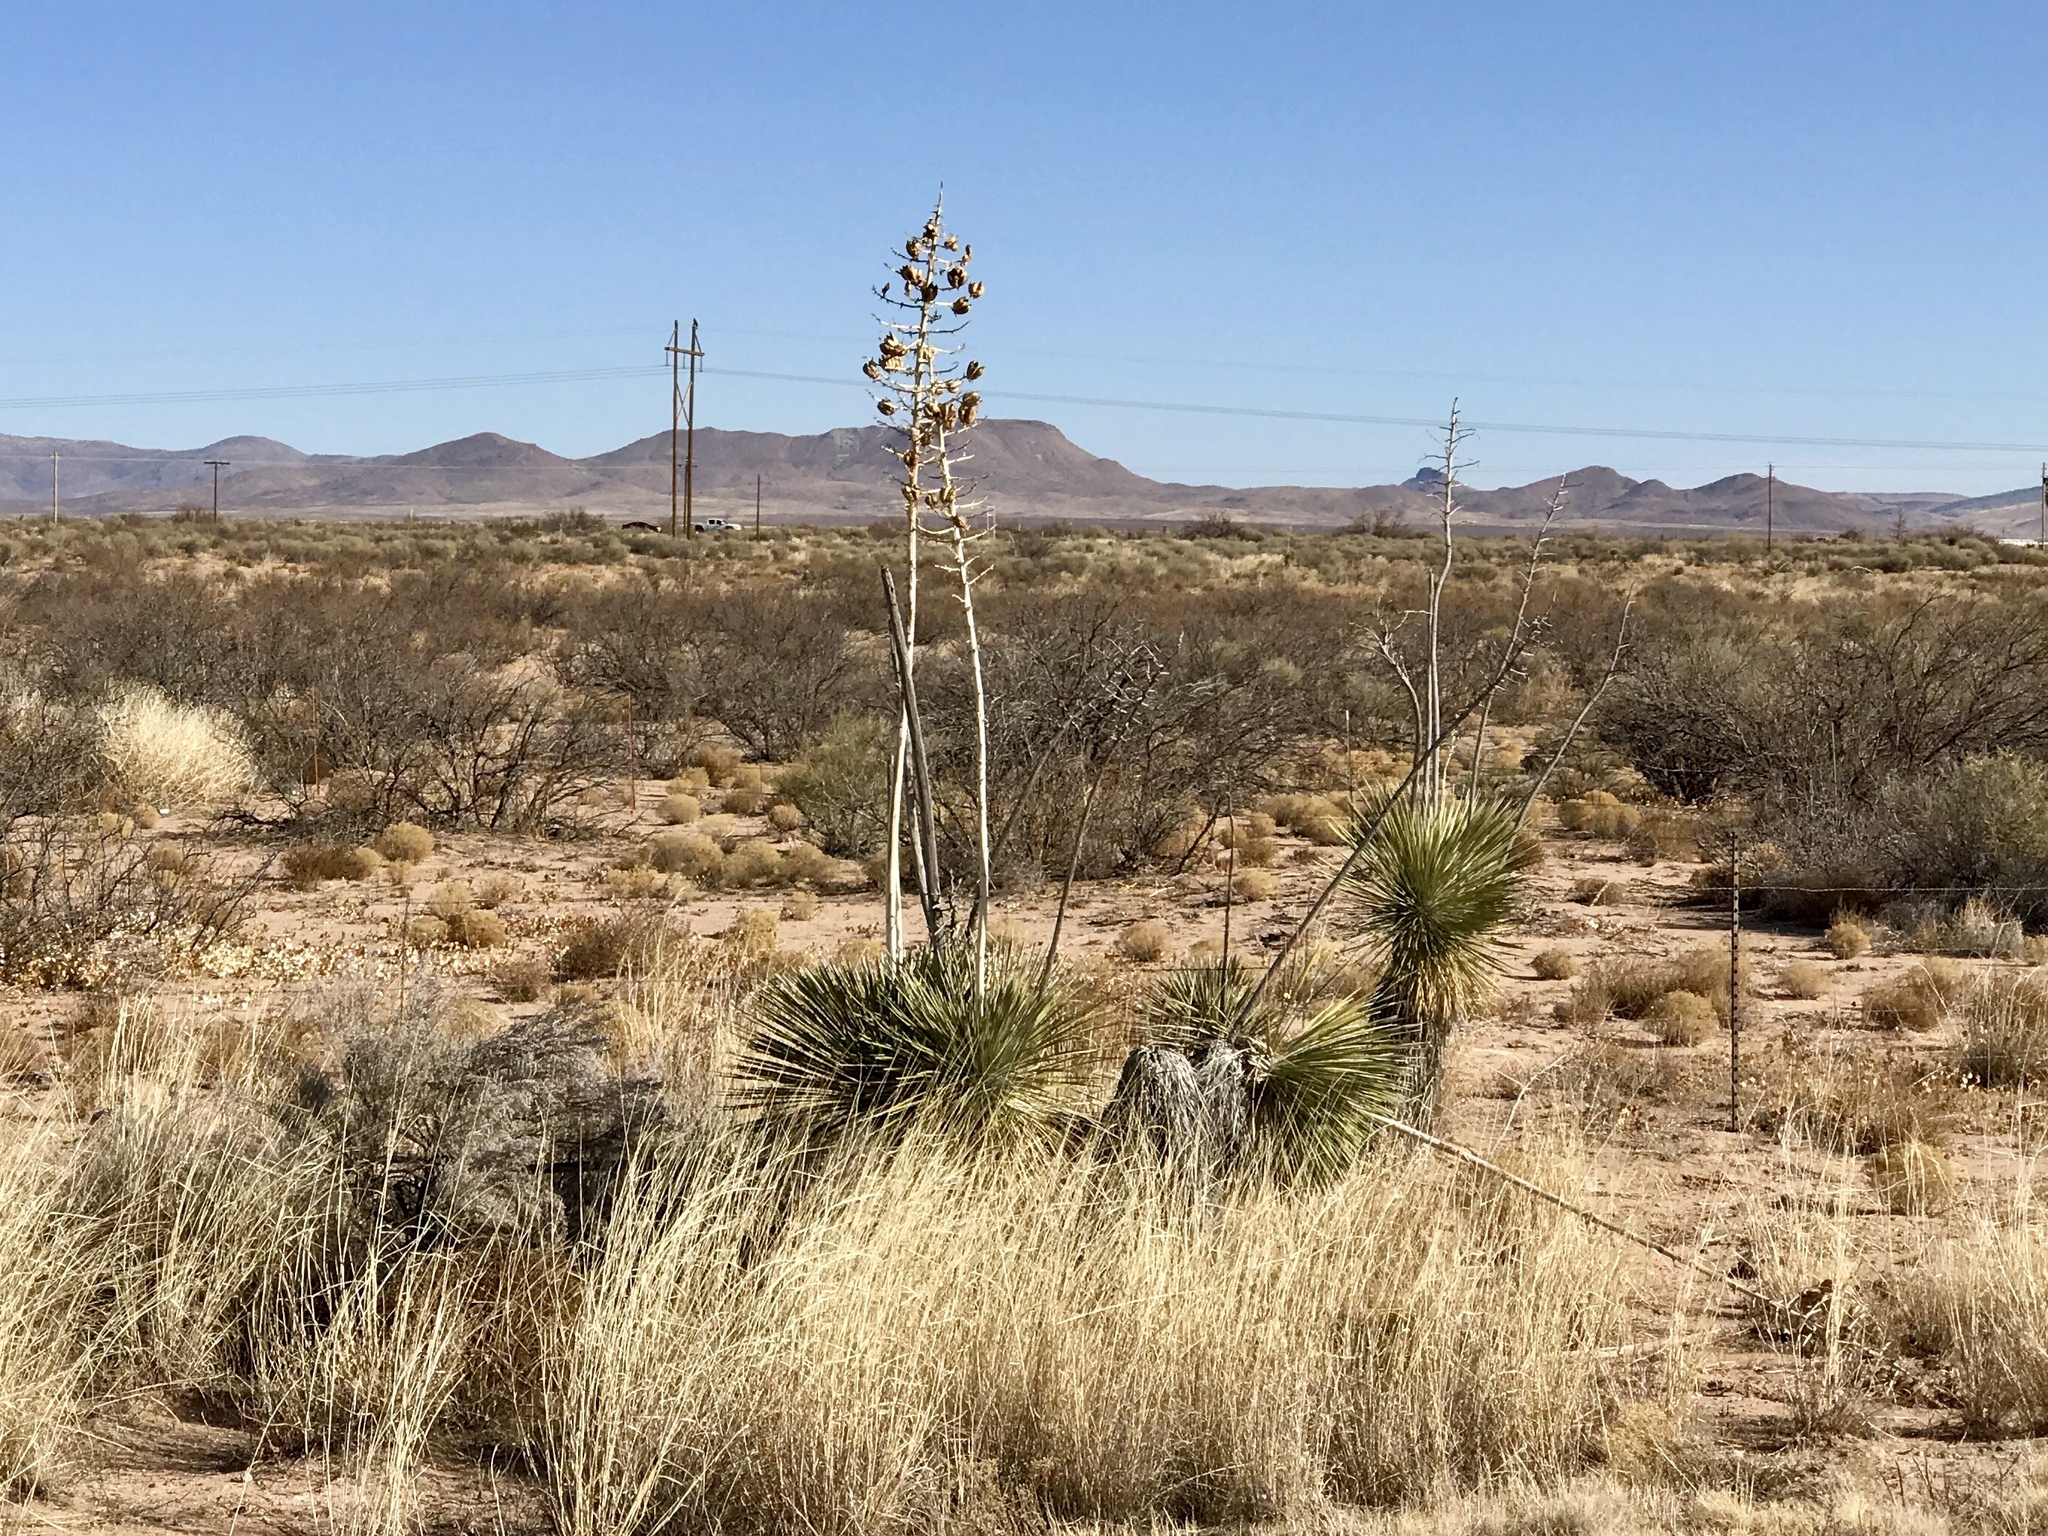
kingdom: Plantae
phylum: Tracheophyta
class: Liliopsida
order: Asparagales
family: Asparagaceae
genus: Yucca
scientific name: Yucca elata
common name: Palmella
